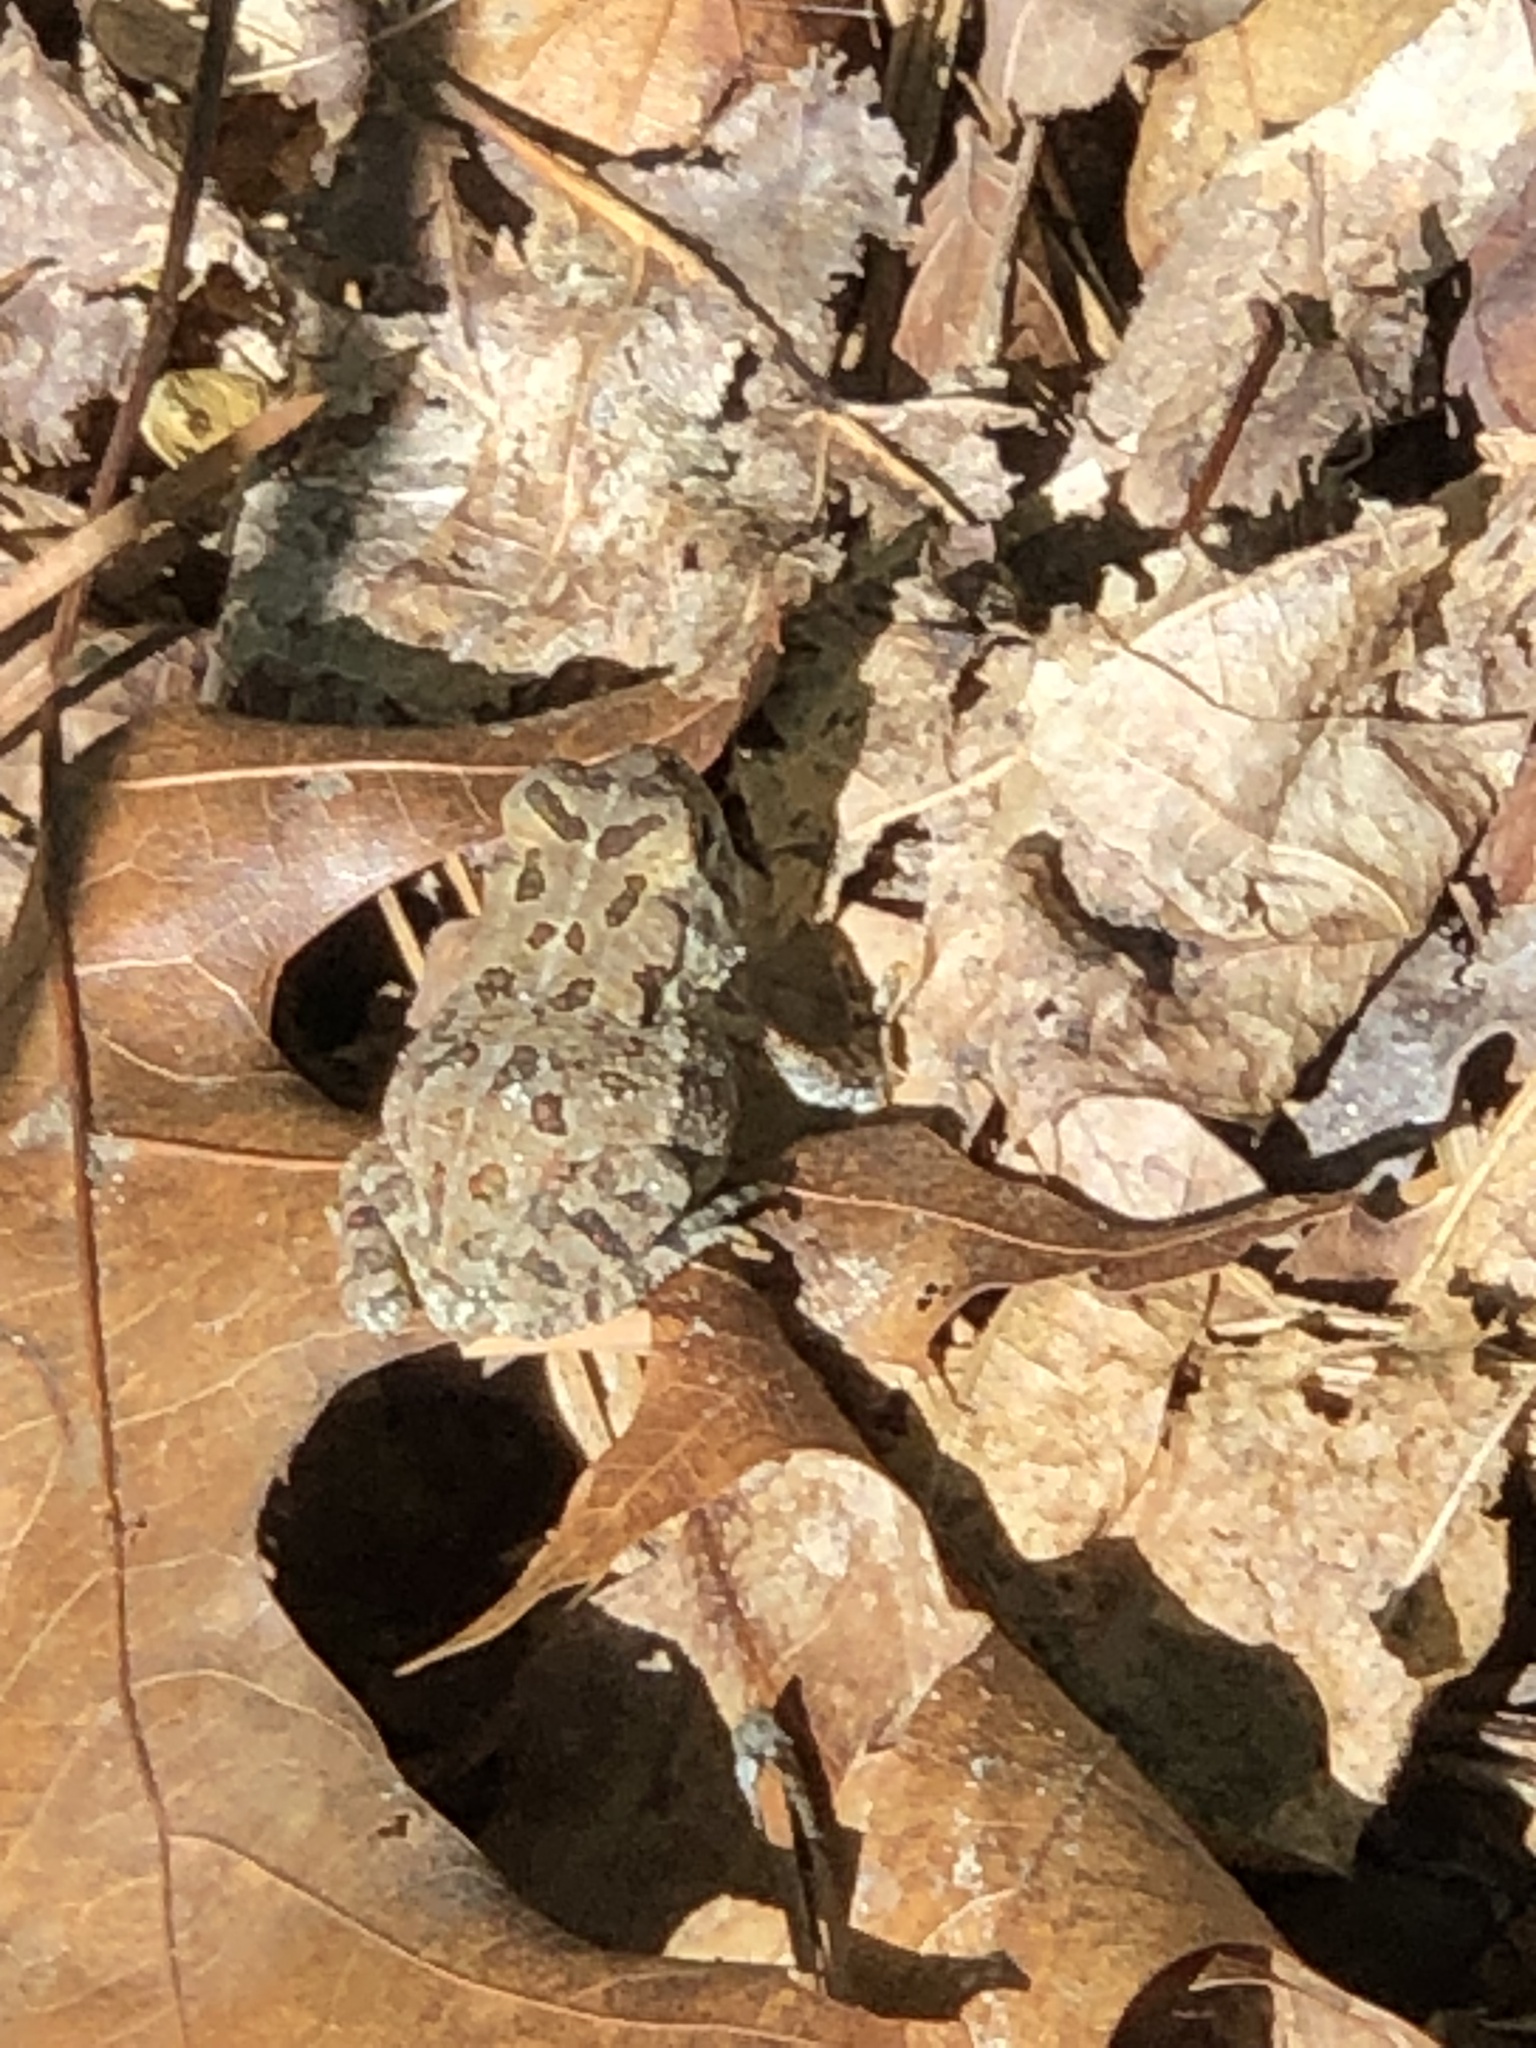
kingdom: Animalia
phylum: Chordata
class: Amphibia
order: Anura
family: Bufonidae
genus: Anaxyrus
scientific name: Anaxyrus fowleri
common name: Fowler's toad
